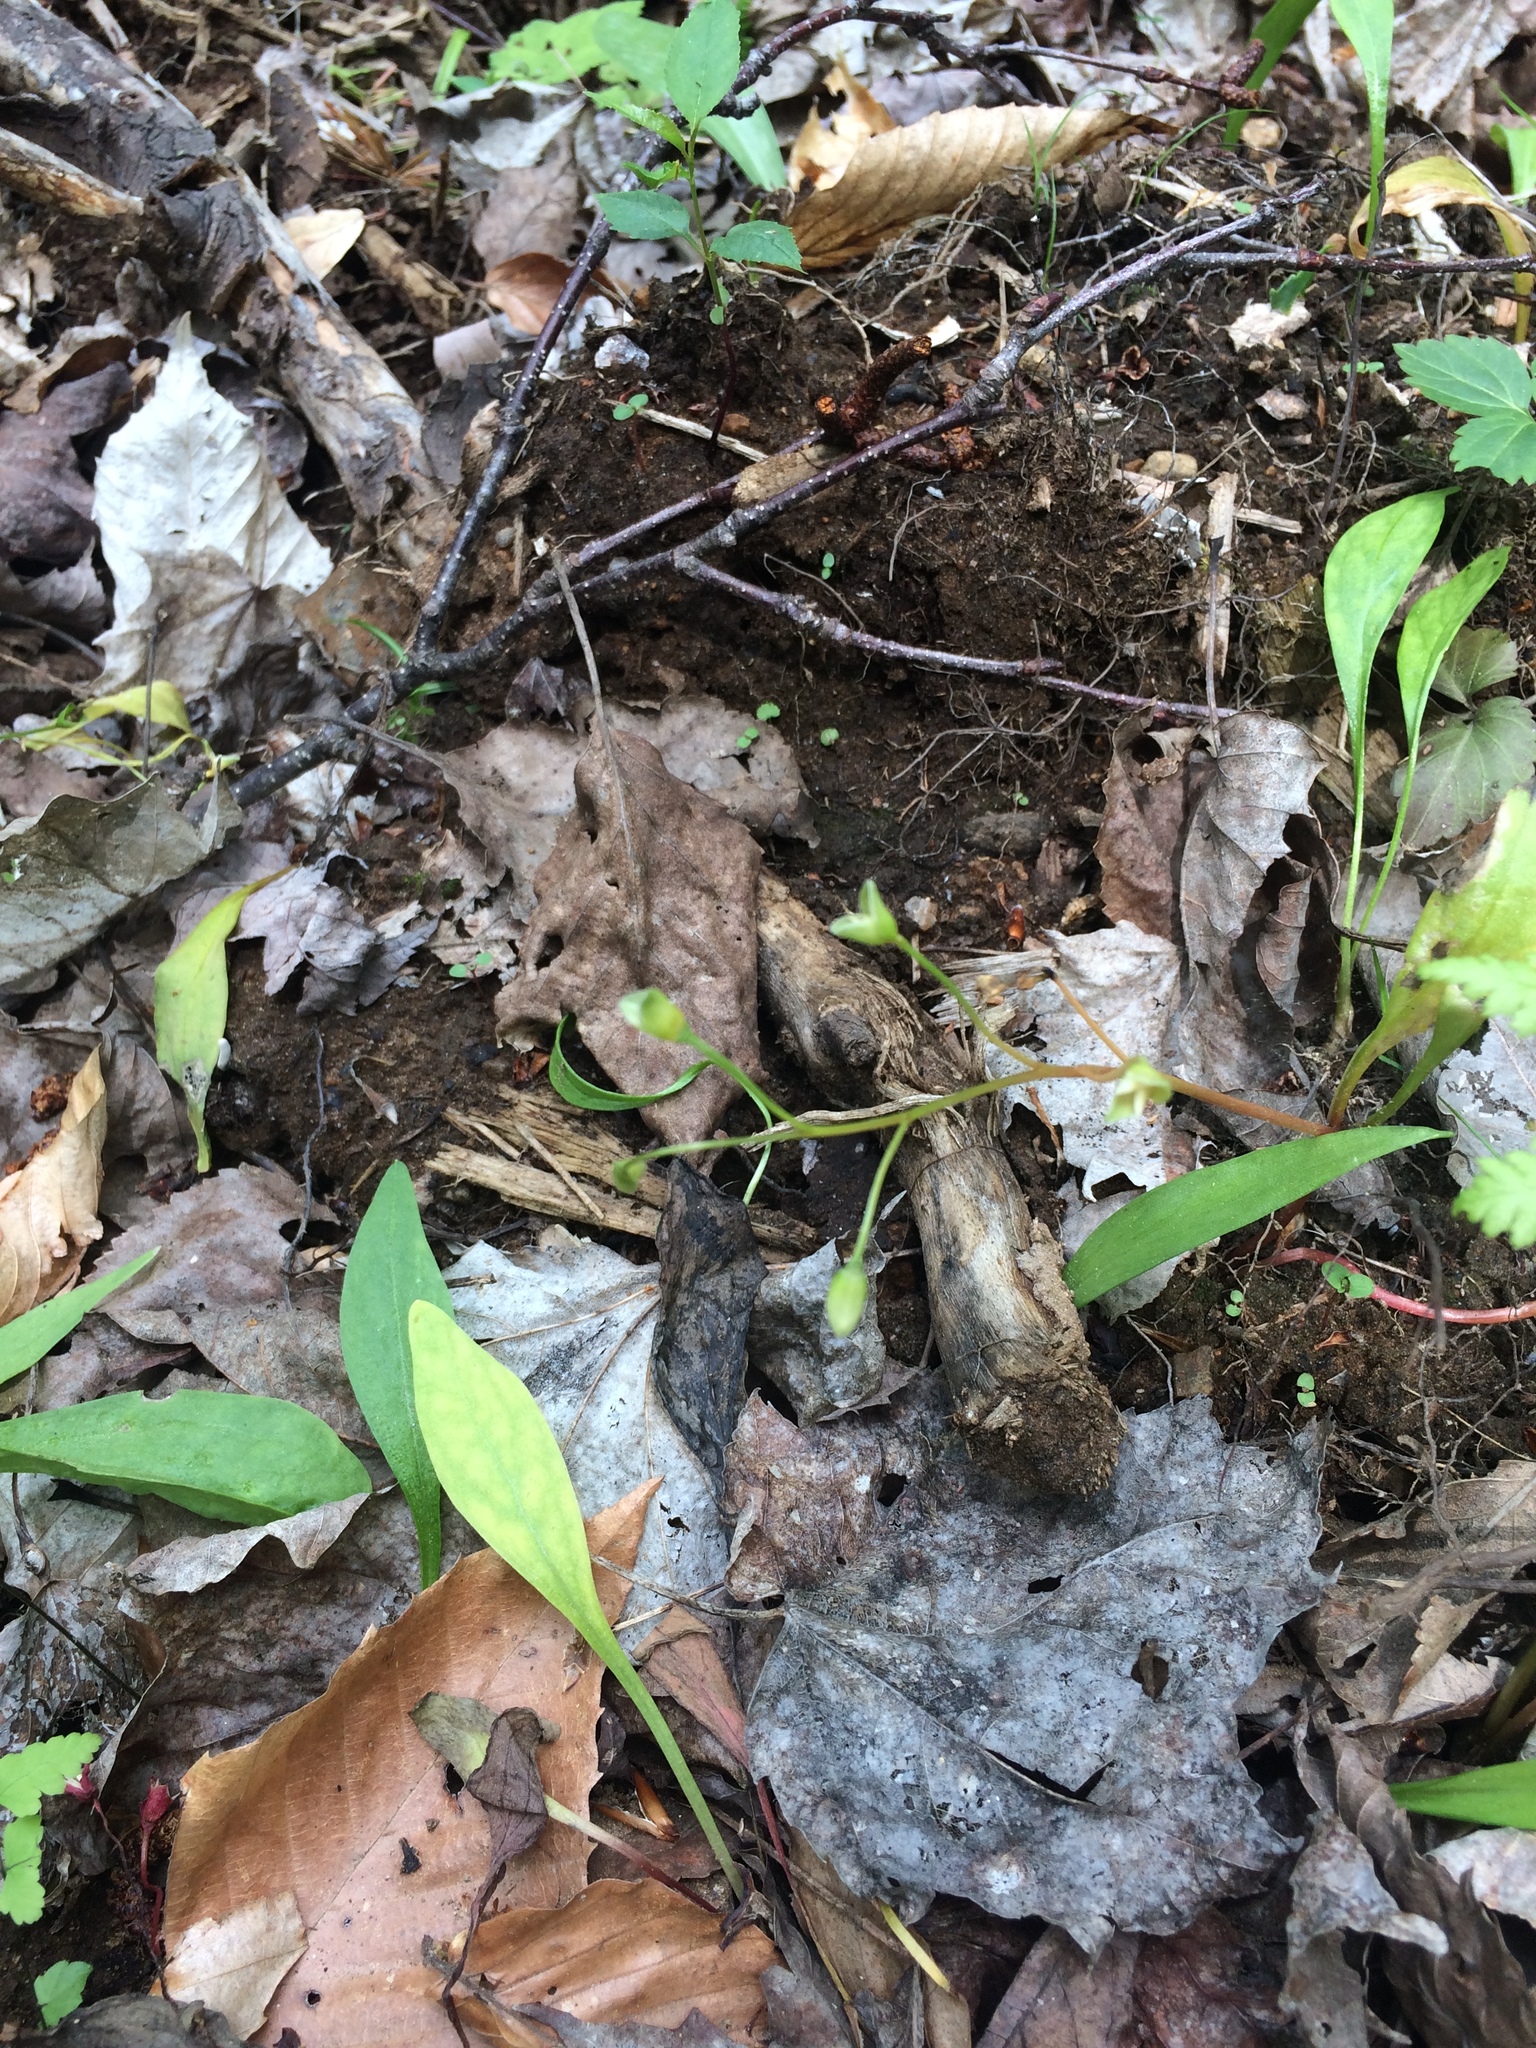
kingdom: Plantae
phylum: Tracheophyta
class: Magnoliopsida
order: Caryophyllales
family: Montiaceae
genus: Claytonia
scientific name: Claytonia caroliniana
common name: Carolina spring beauty
